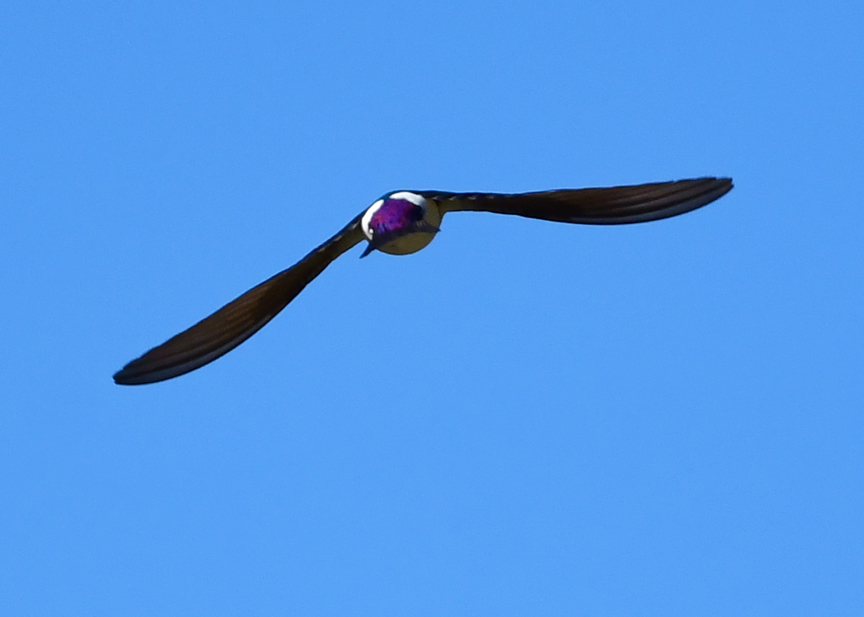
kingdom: Animalia
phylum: Chordata
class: Aves
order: Passeriformes
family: Hirundinidae
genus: Tachycineta
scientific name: Tachycineta thalassina
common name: Violet-green swallow
